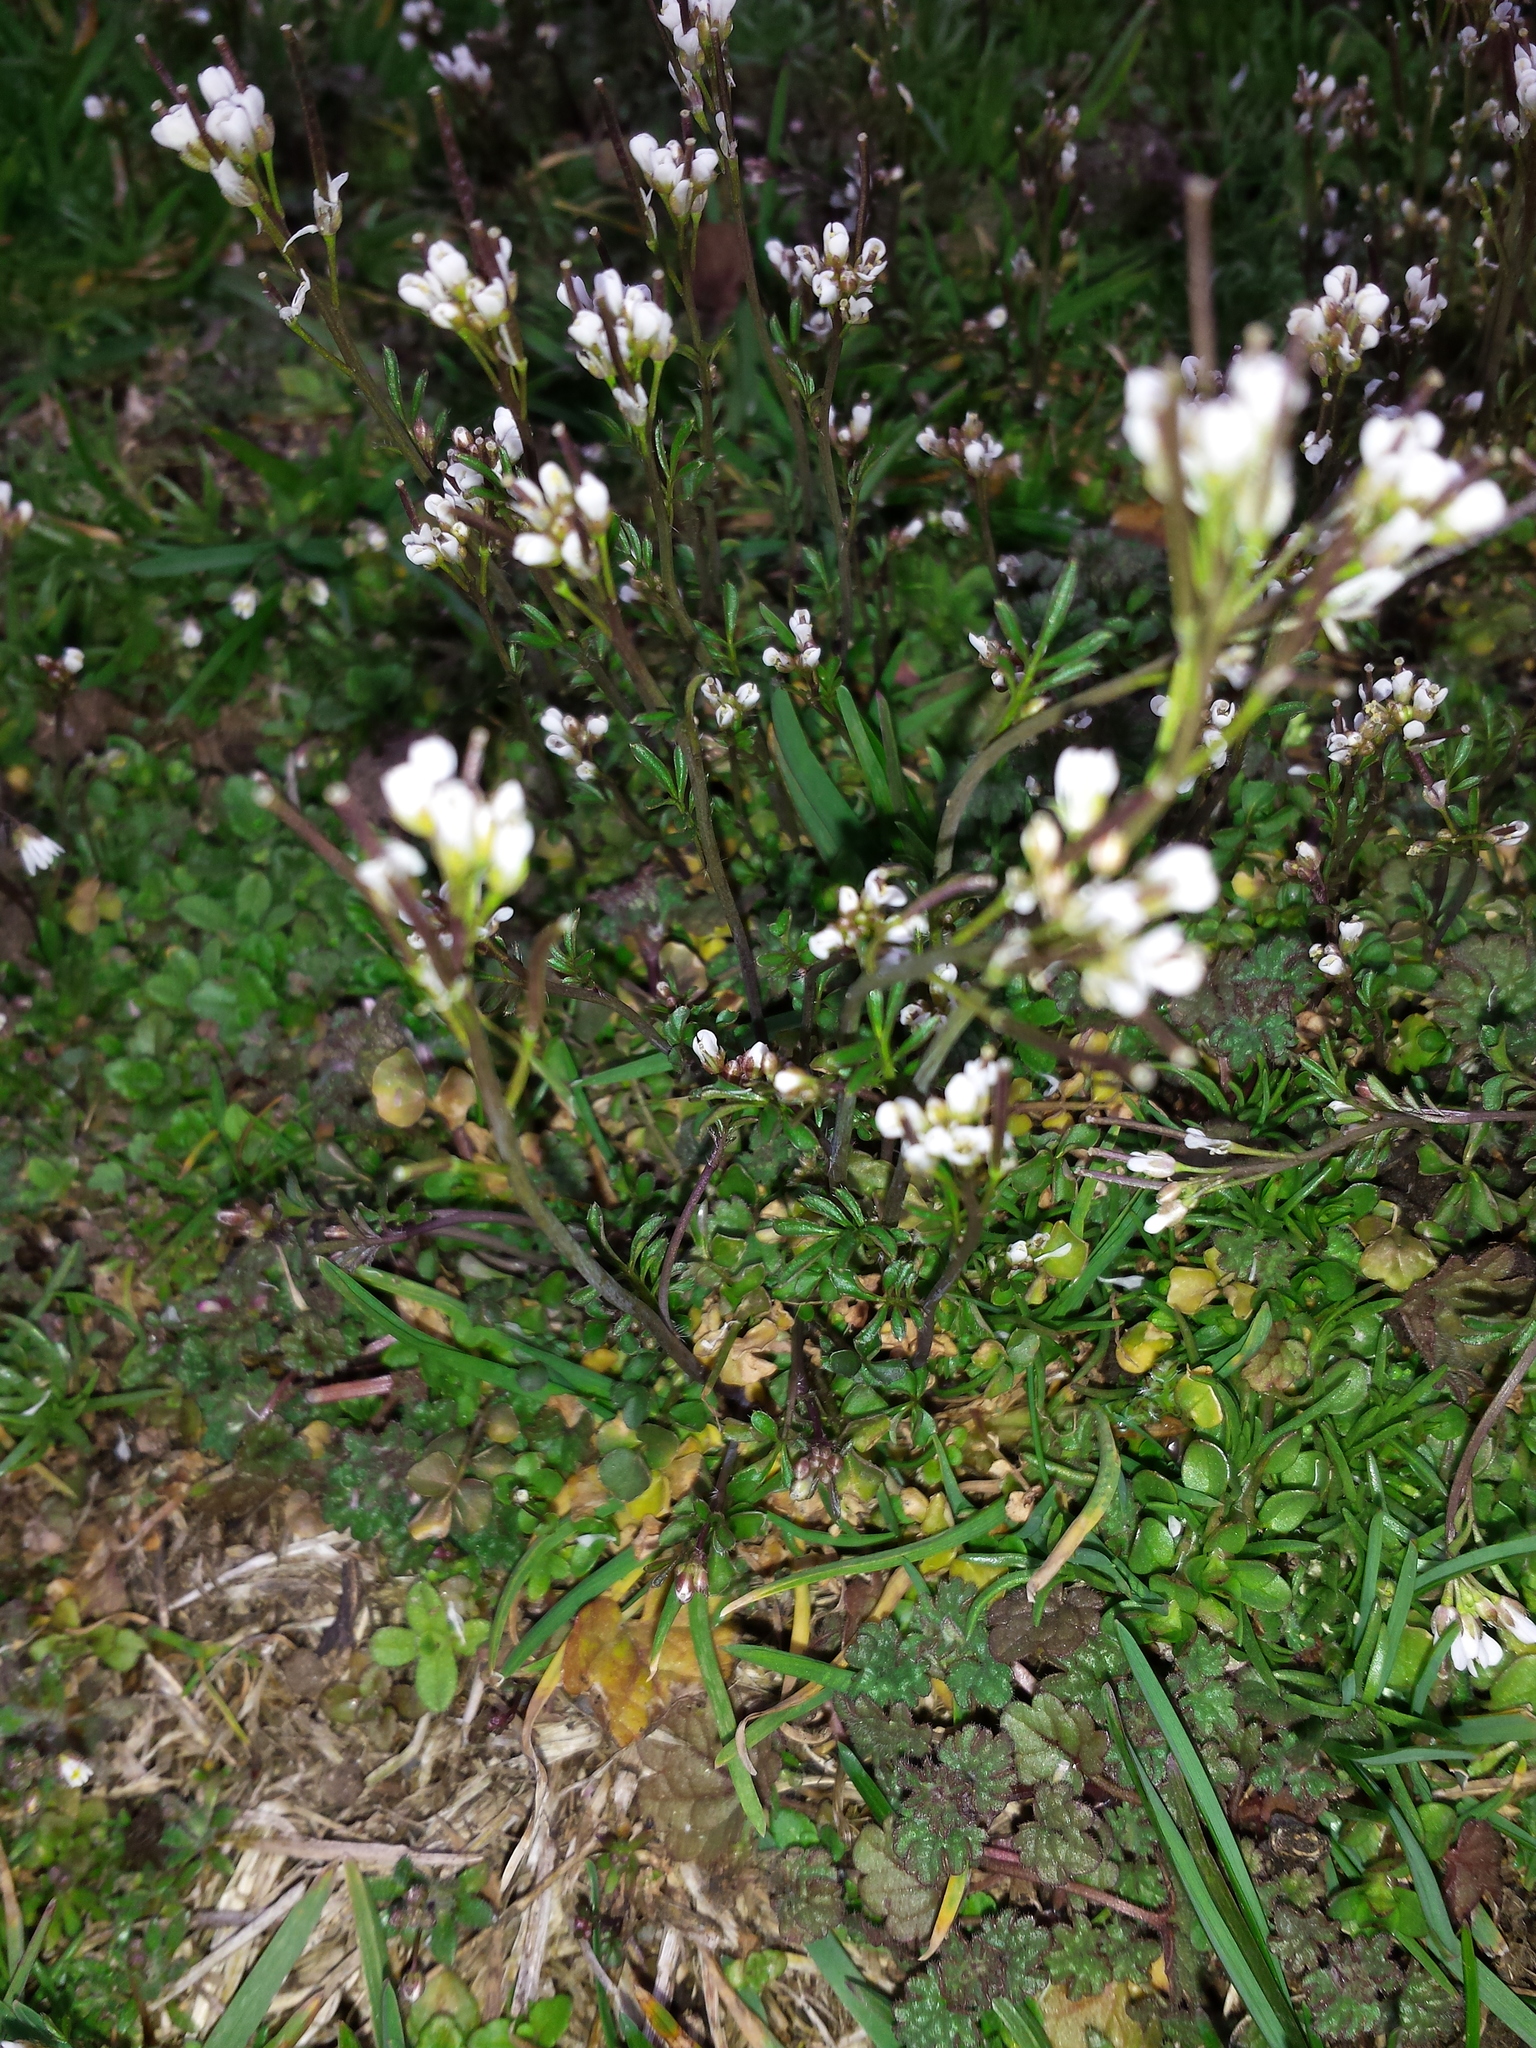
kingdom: Plantae
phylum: Tracheophyta
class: Magnoliopsida
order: Brassicales
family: Brassicaceae
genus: Cardamine
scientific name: Cardamine hirsuta
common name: Hairy bittercress
